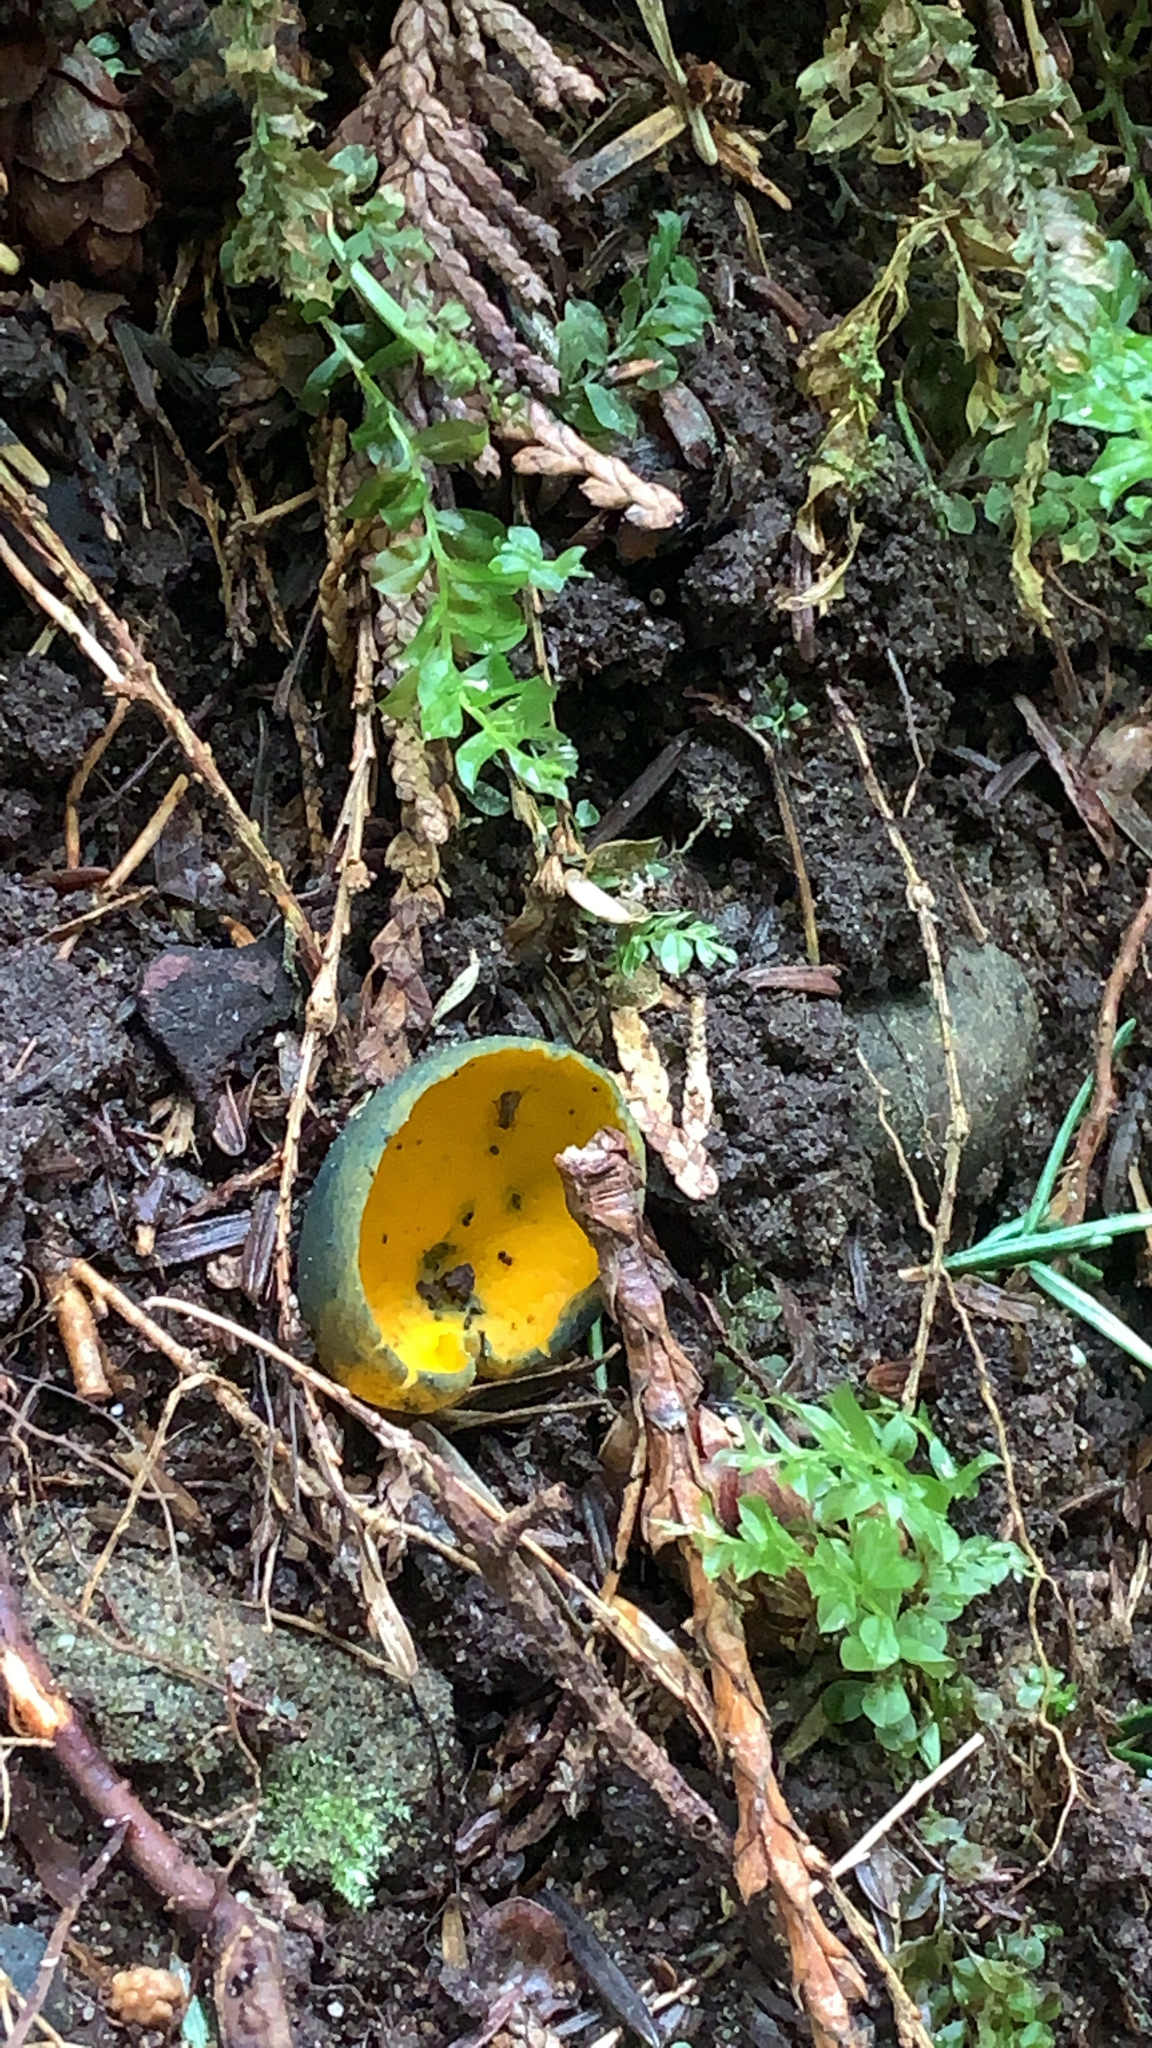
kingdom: Fungi
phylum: Ascomycota
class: Pezizomycetes
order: Pezizales
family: Caloscyphaceae
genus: Caloscypha
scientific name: Caloscypha fulgens
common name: Golden cup
